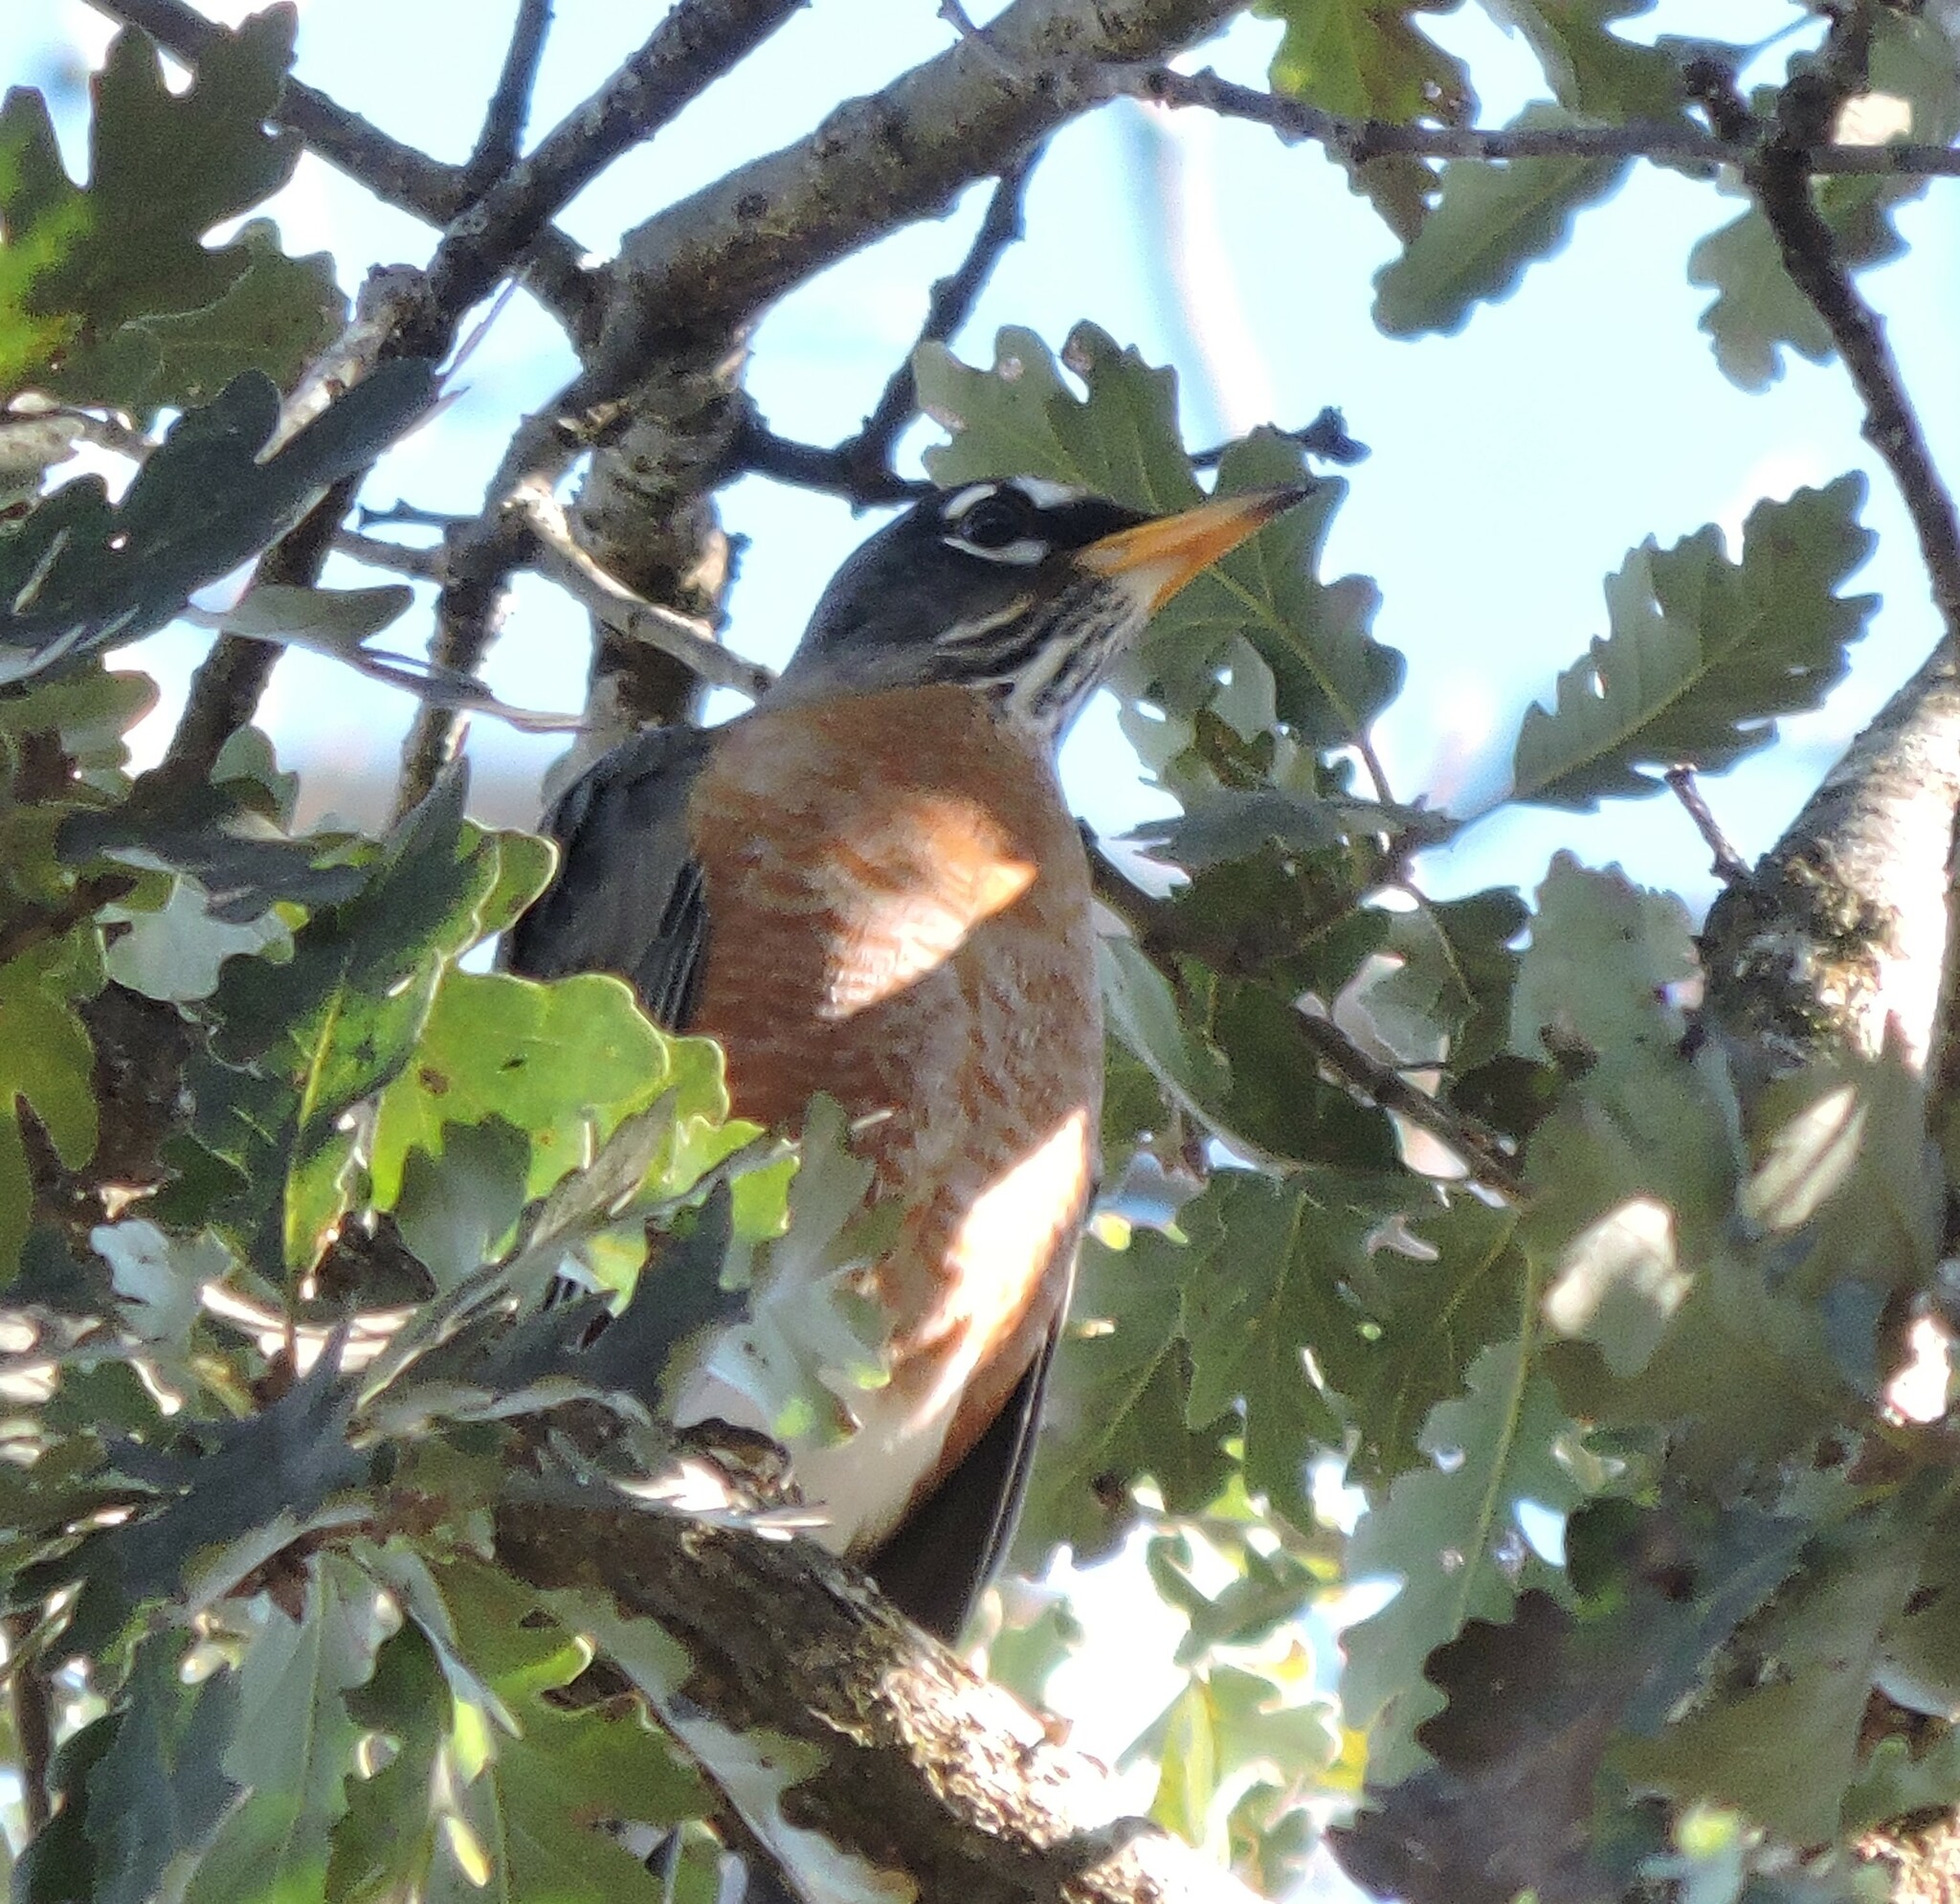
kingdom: Animalia
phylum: Chordata
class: Aves
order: Passeriformes
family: Turdidae
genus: Turdus
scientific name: Turdus migratorius
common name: American robin
